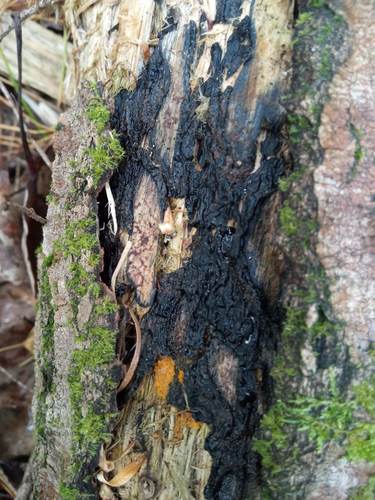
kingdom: Fungi
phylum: Basidiomycota
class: Agaricomycetes
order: Auriculariales
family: Auriculariaceae
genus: Exidia
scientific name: Exidia
